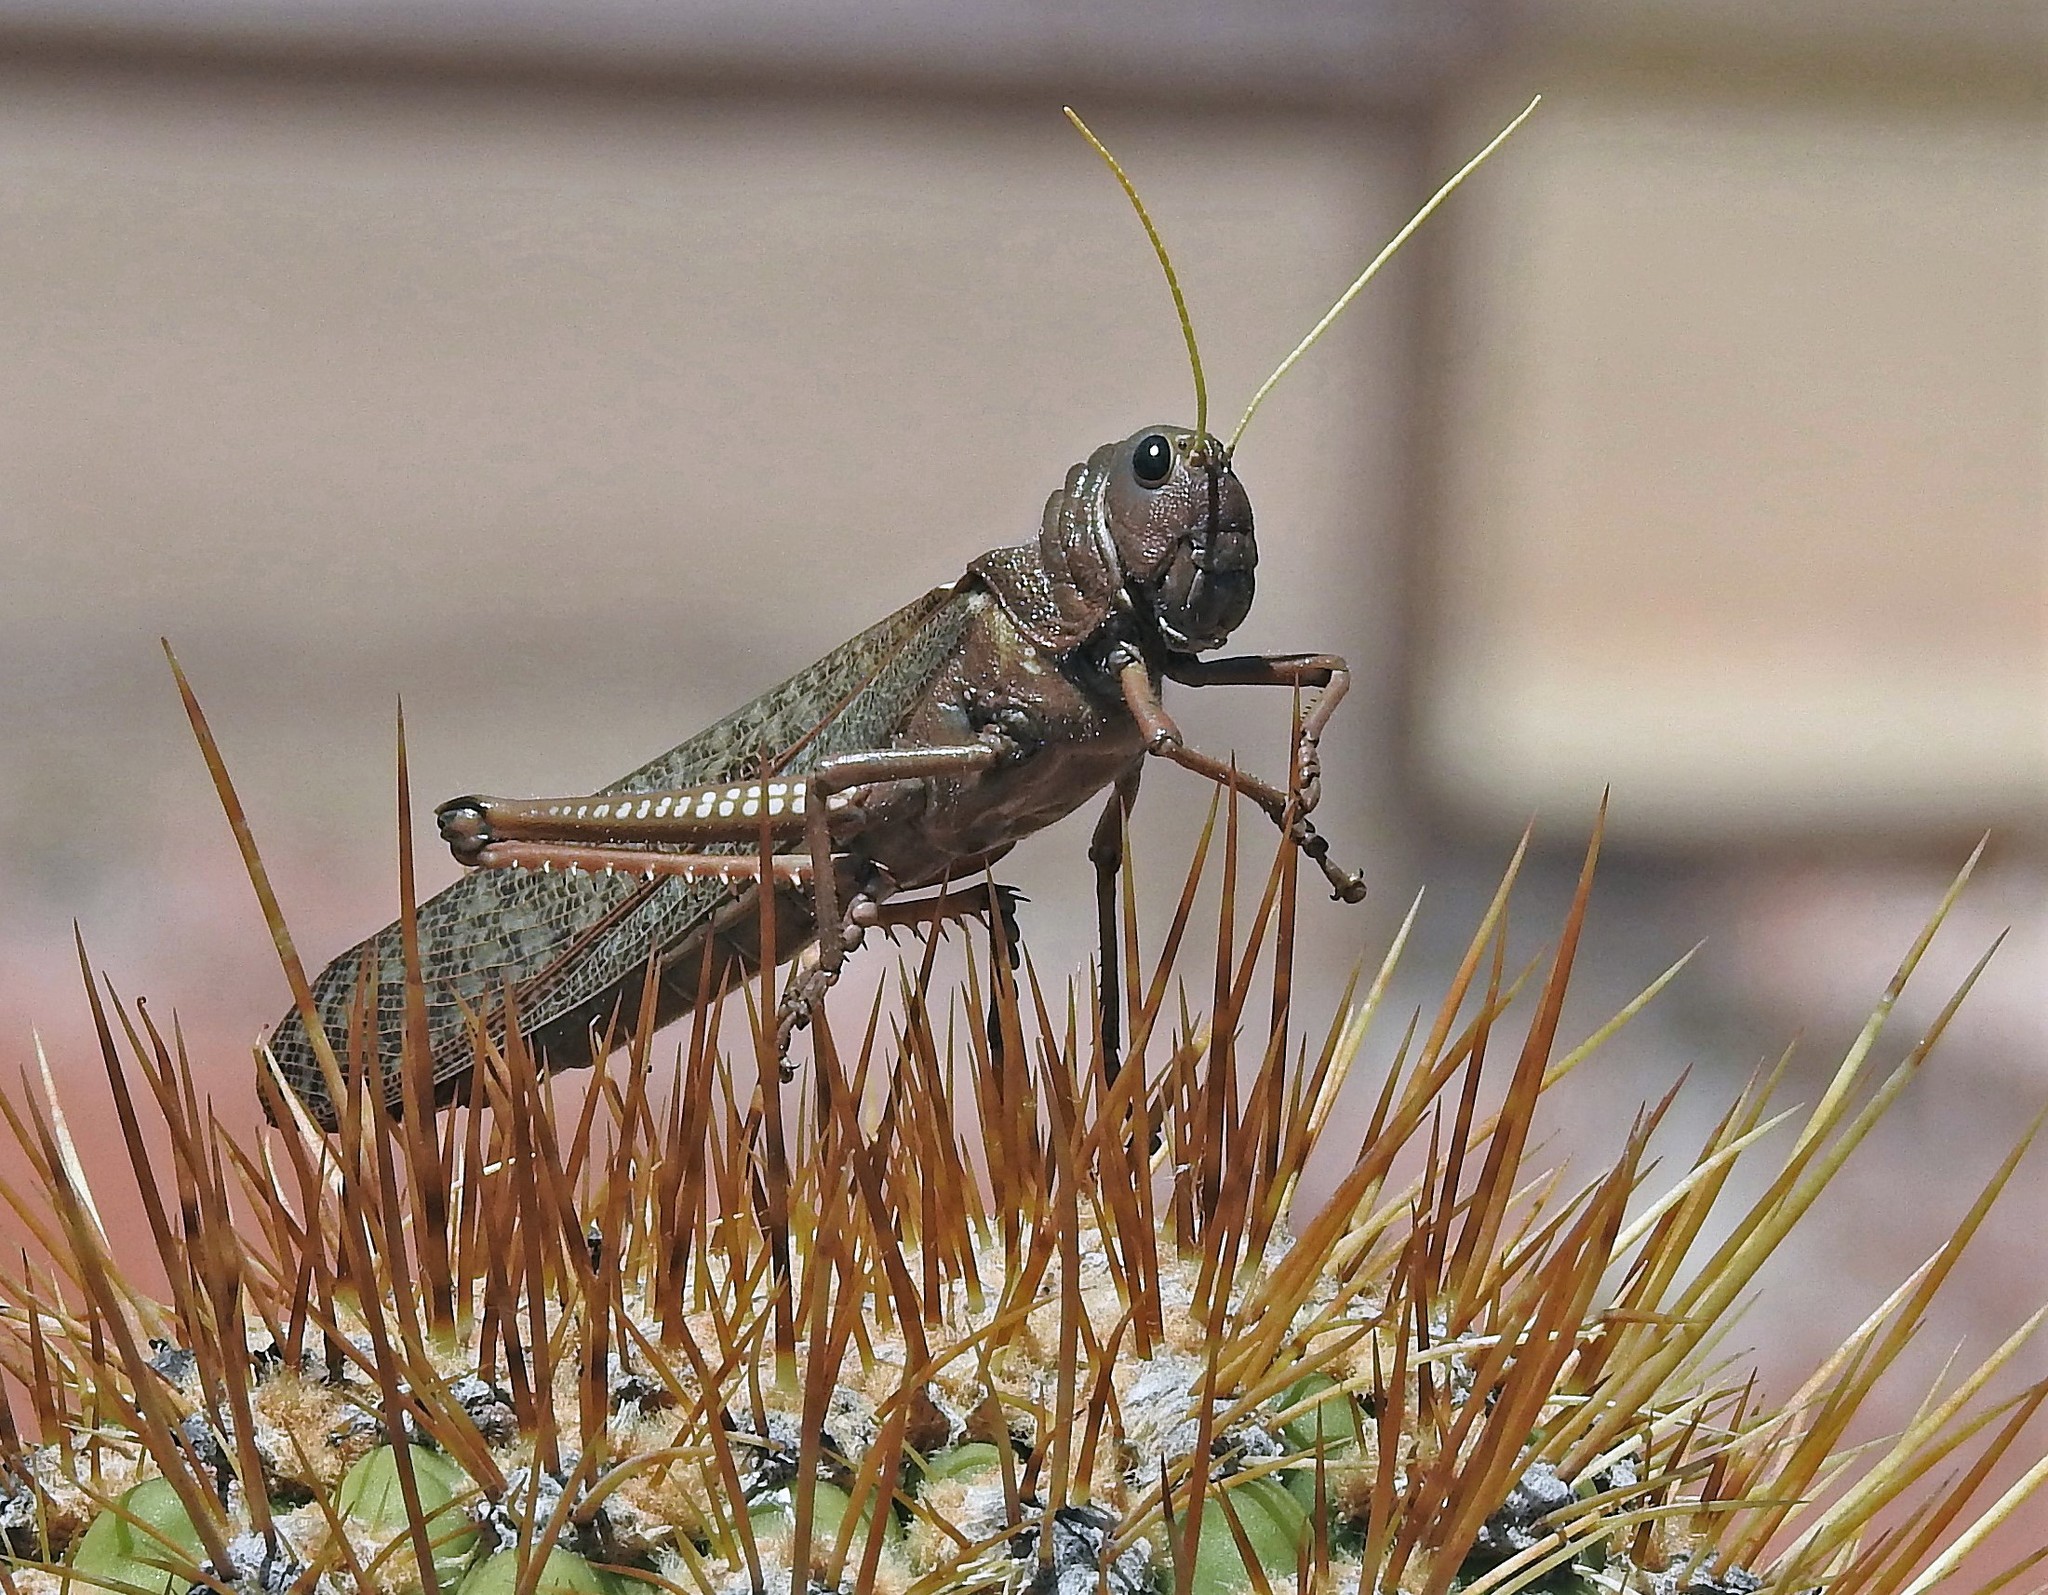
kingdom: Animalia
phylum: Arthropoda
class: Insecta
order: Orthoptera
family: Romaleidae
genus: Tropidacris
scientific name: Tropidacris collaris
